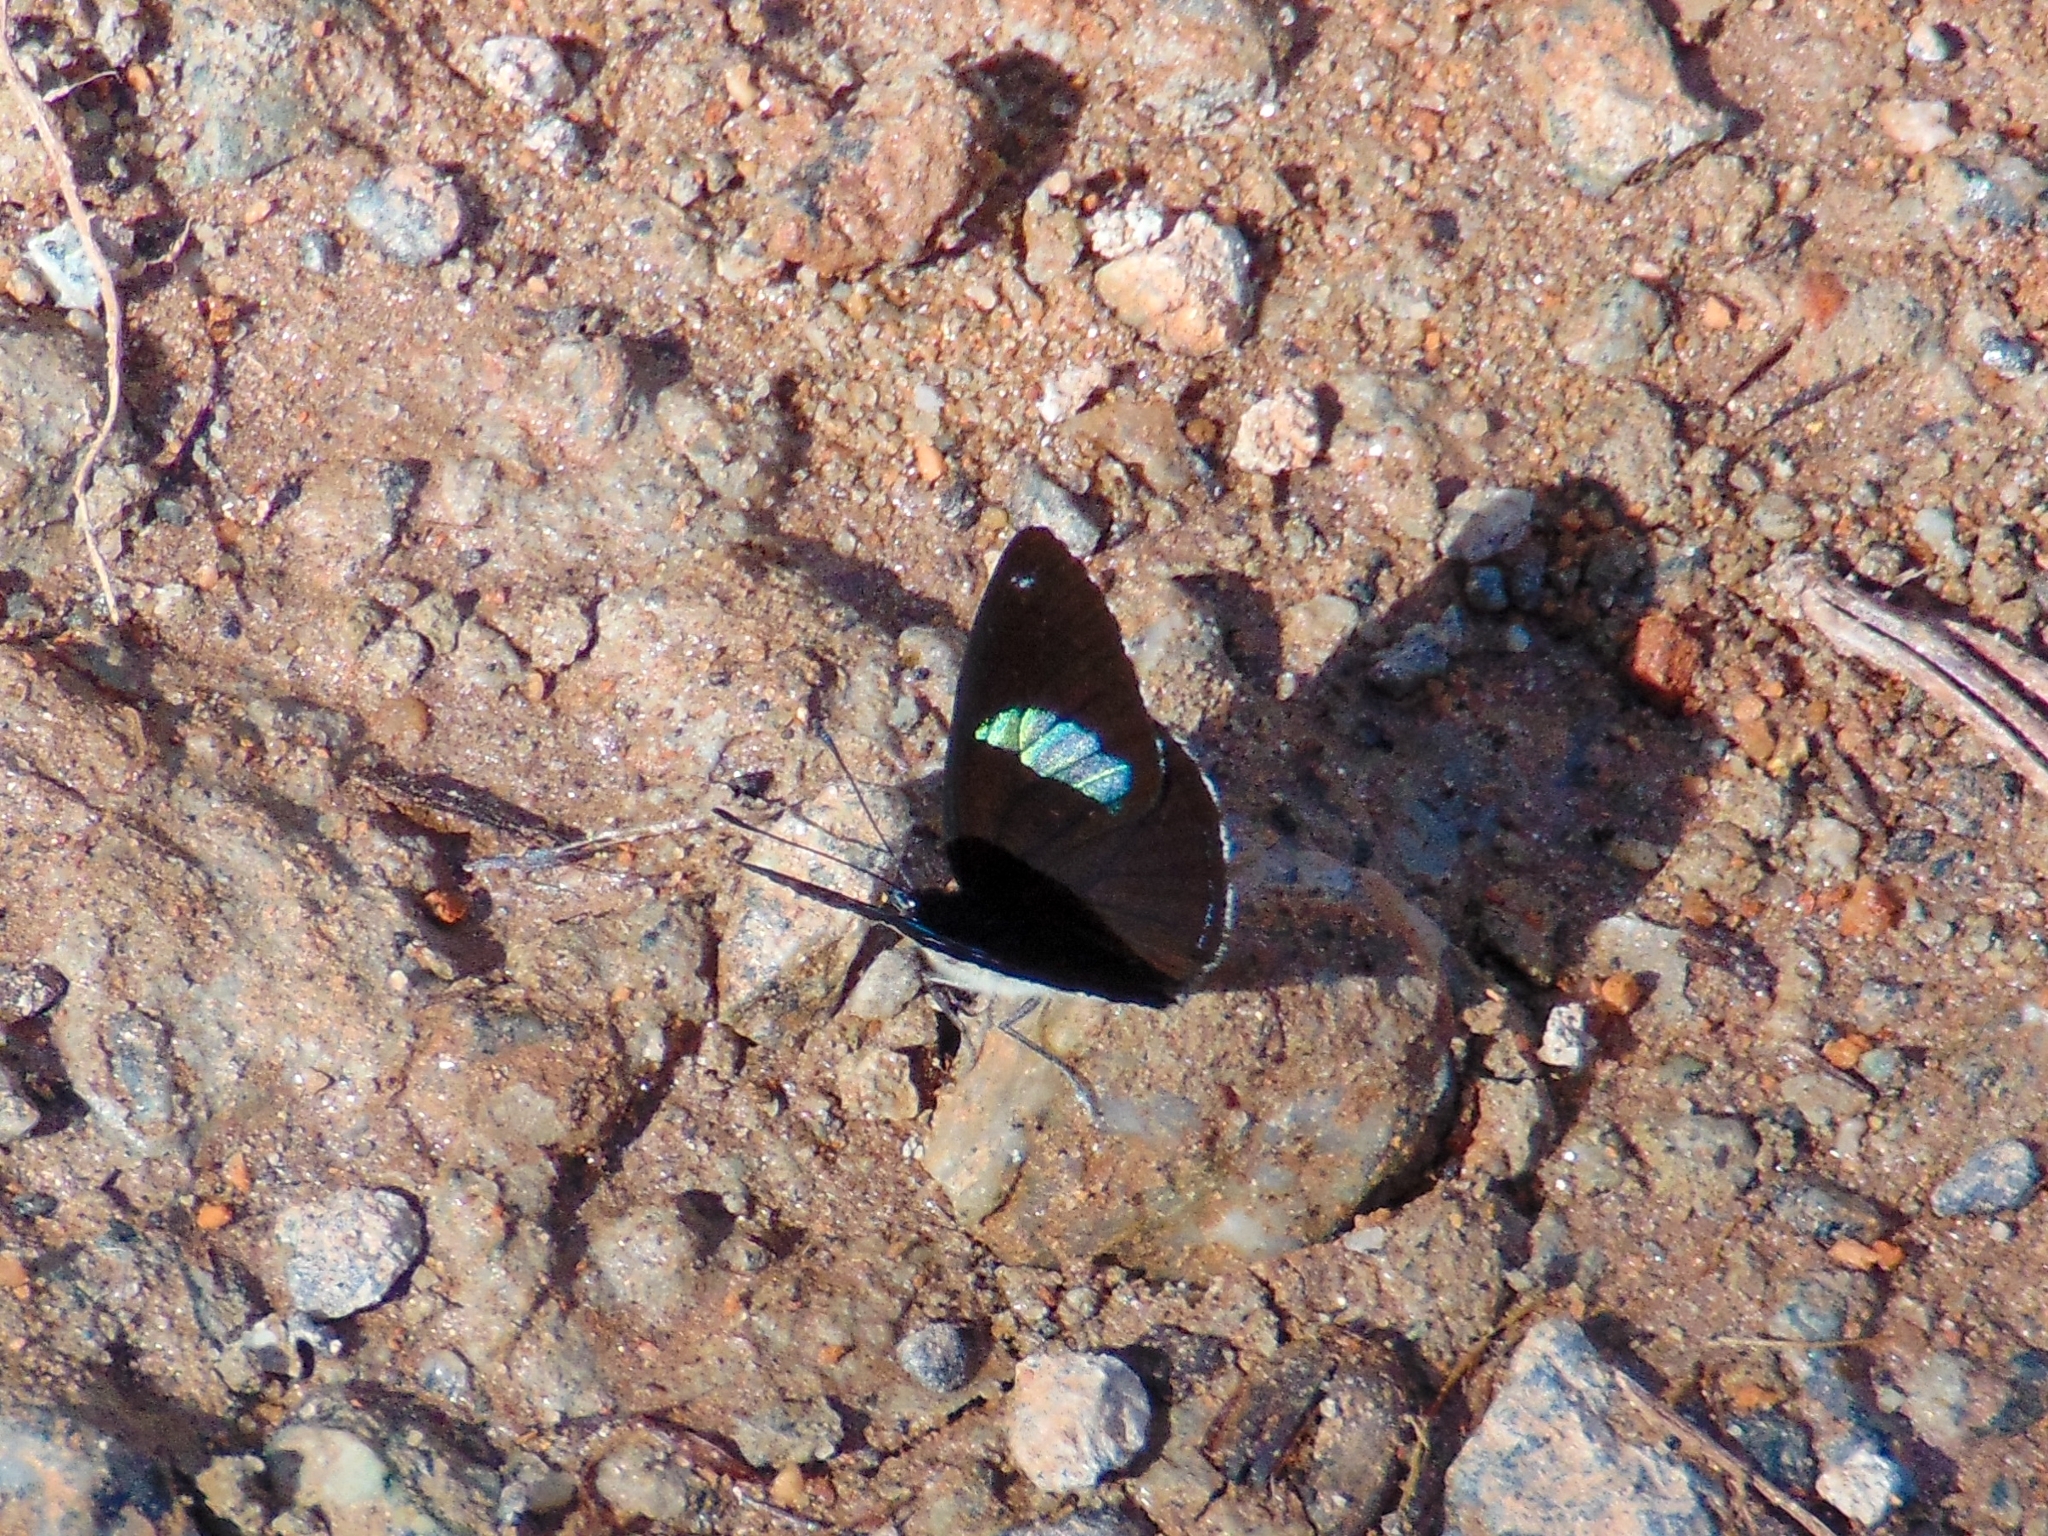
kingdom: Animalia
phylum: Arthropoda
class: Insecta
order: Lepidoptera
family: Nymphalidae
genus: Diaethria
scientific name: Diaethria clymena
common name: Widespread eighty-eight
